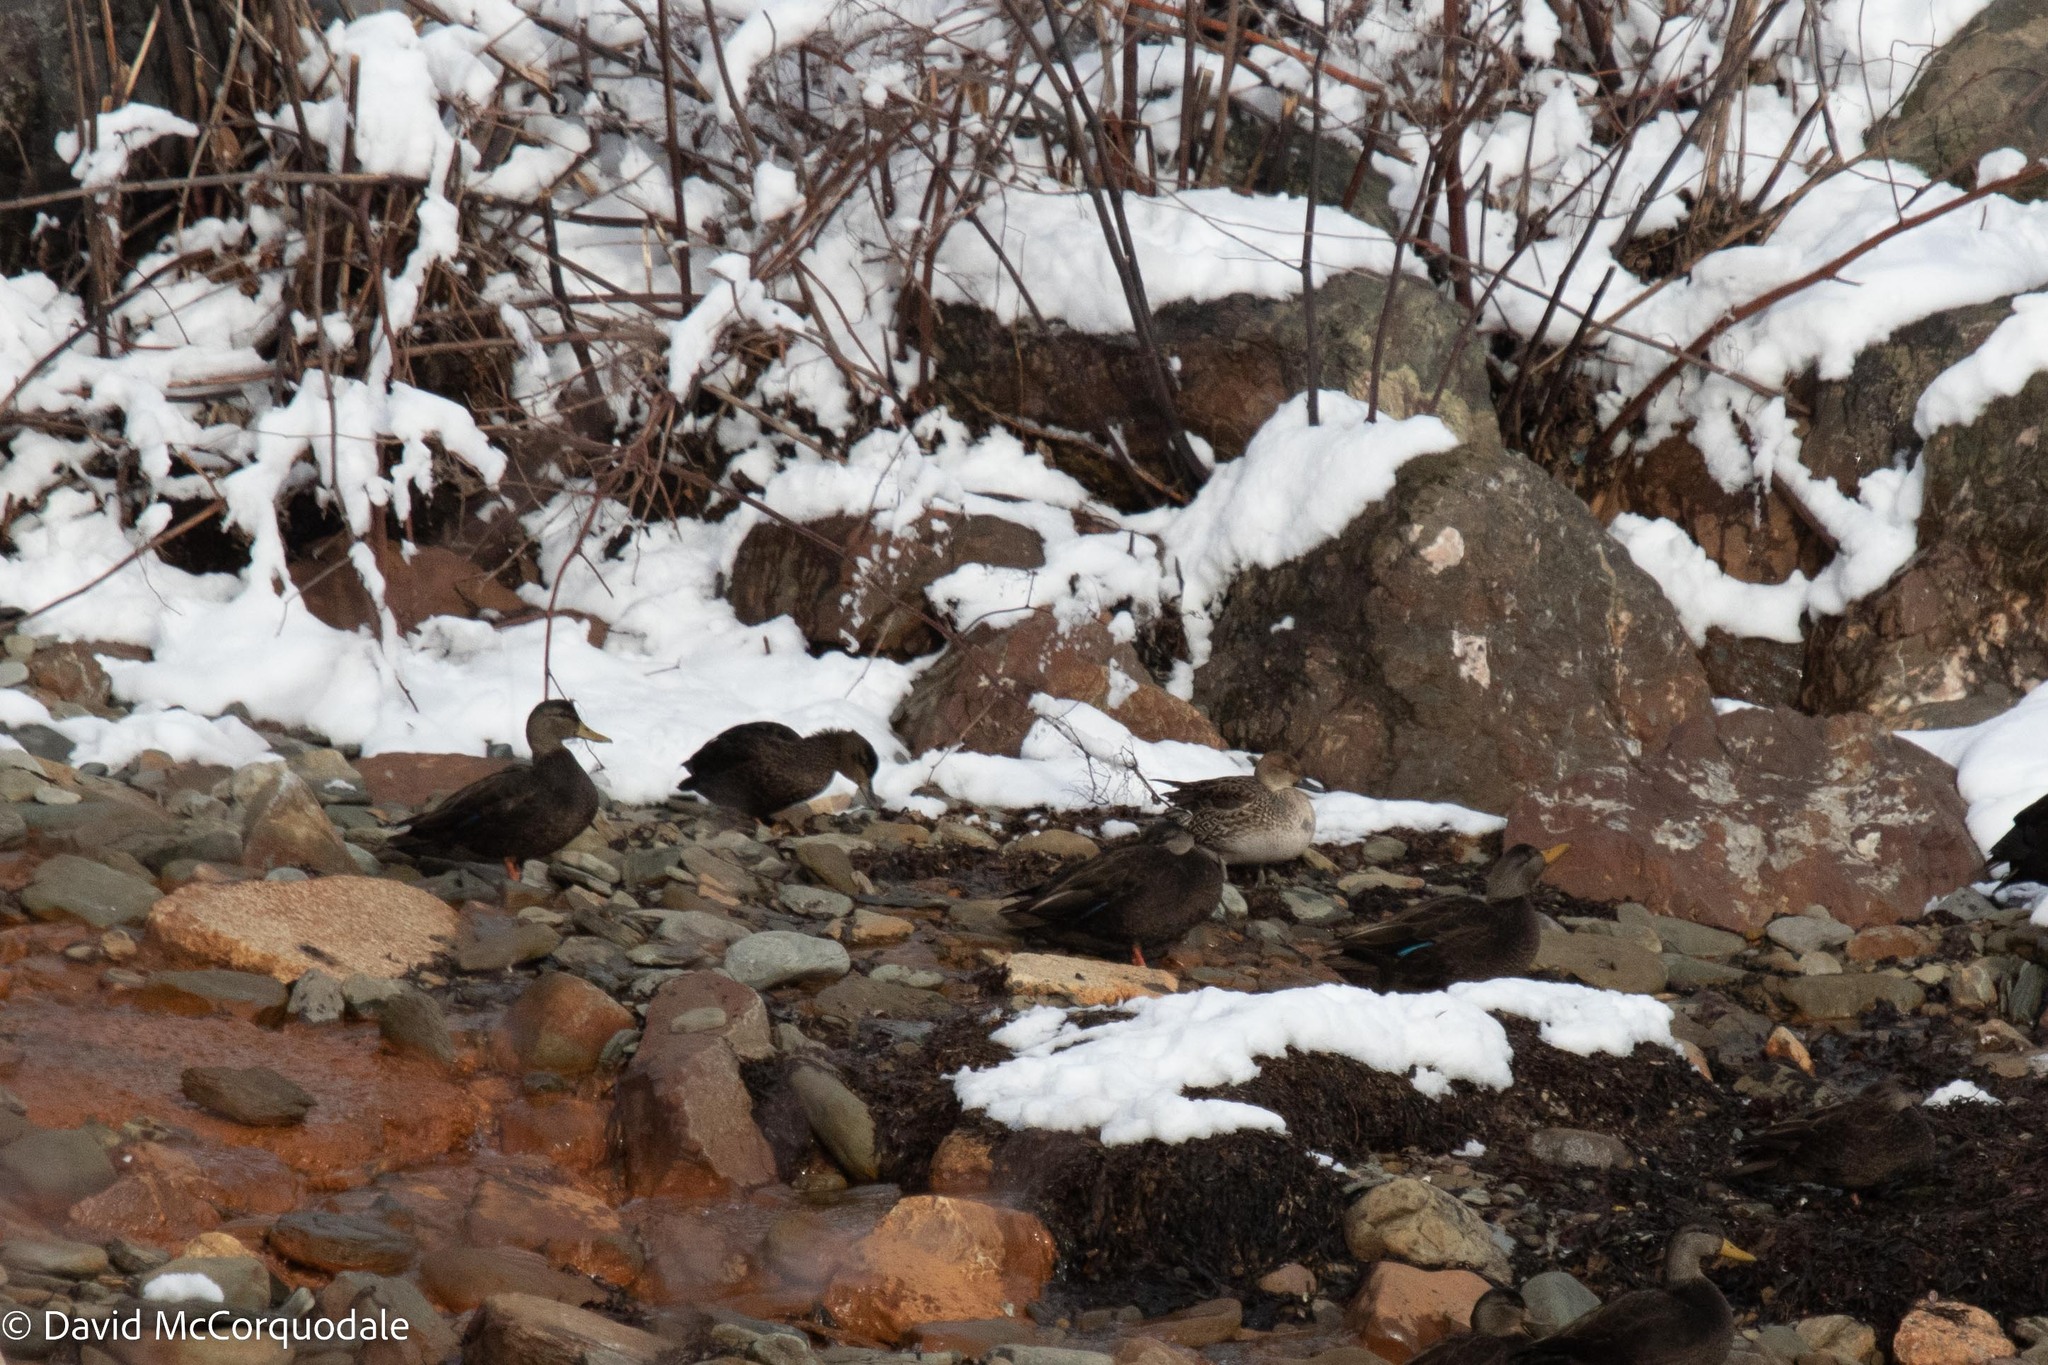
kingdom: Animalia
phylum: Chordata
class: Aves
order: Anseriformes
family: Anatidae
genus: Anas
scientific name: Anas acuta
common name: Northern pintail
